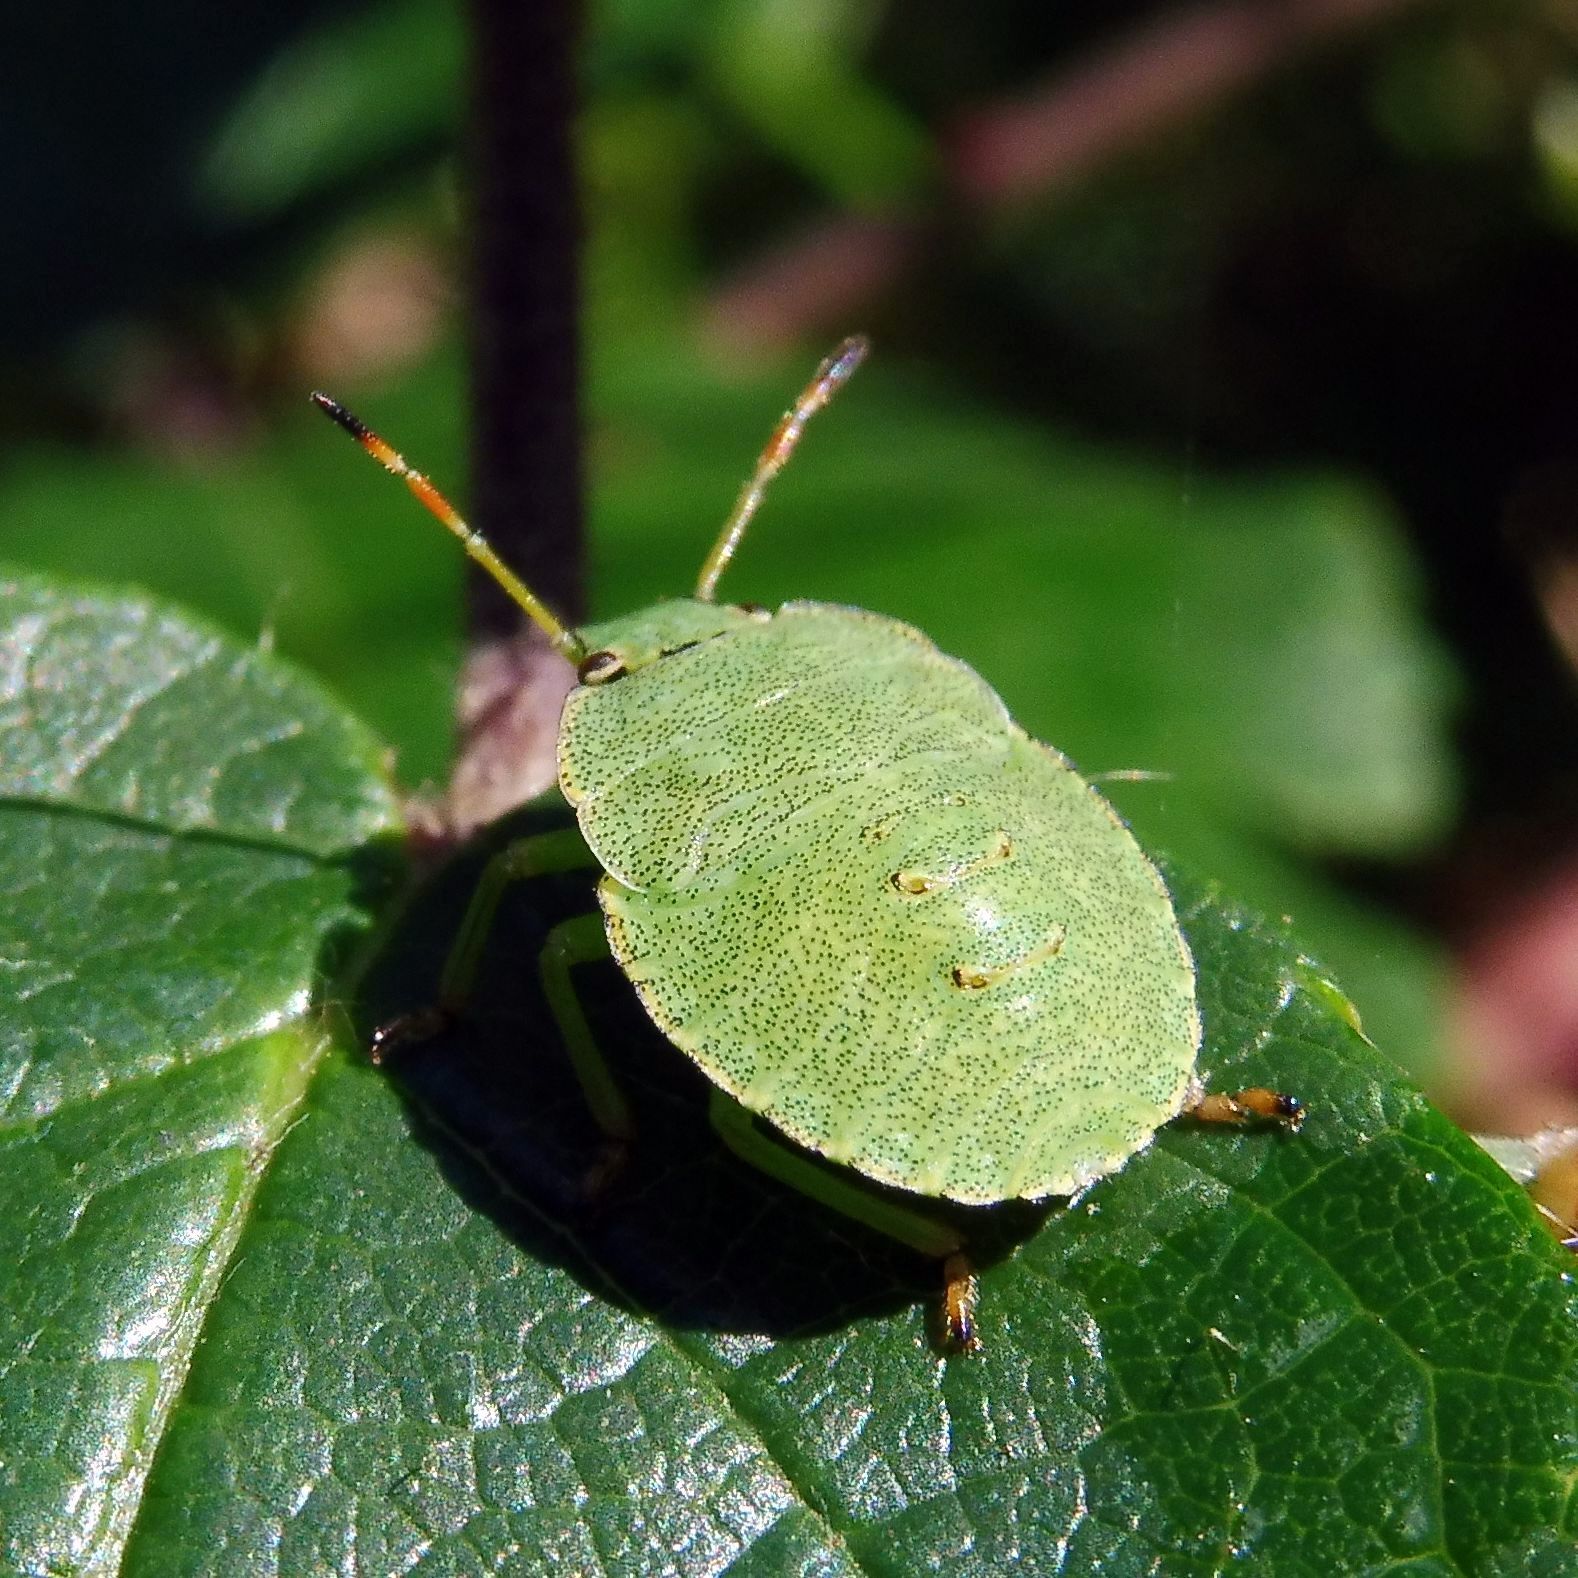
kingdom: Animalia
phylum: Arthropoda
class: Insecta
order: Hemiptera
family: Pentatomidae
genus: Palomena
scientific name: Palomena prasina
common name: Green shieldbug
